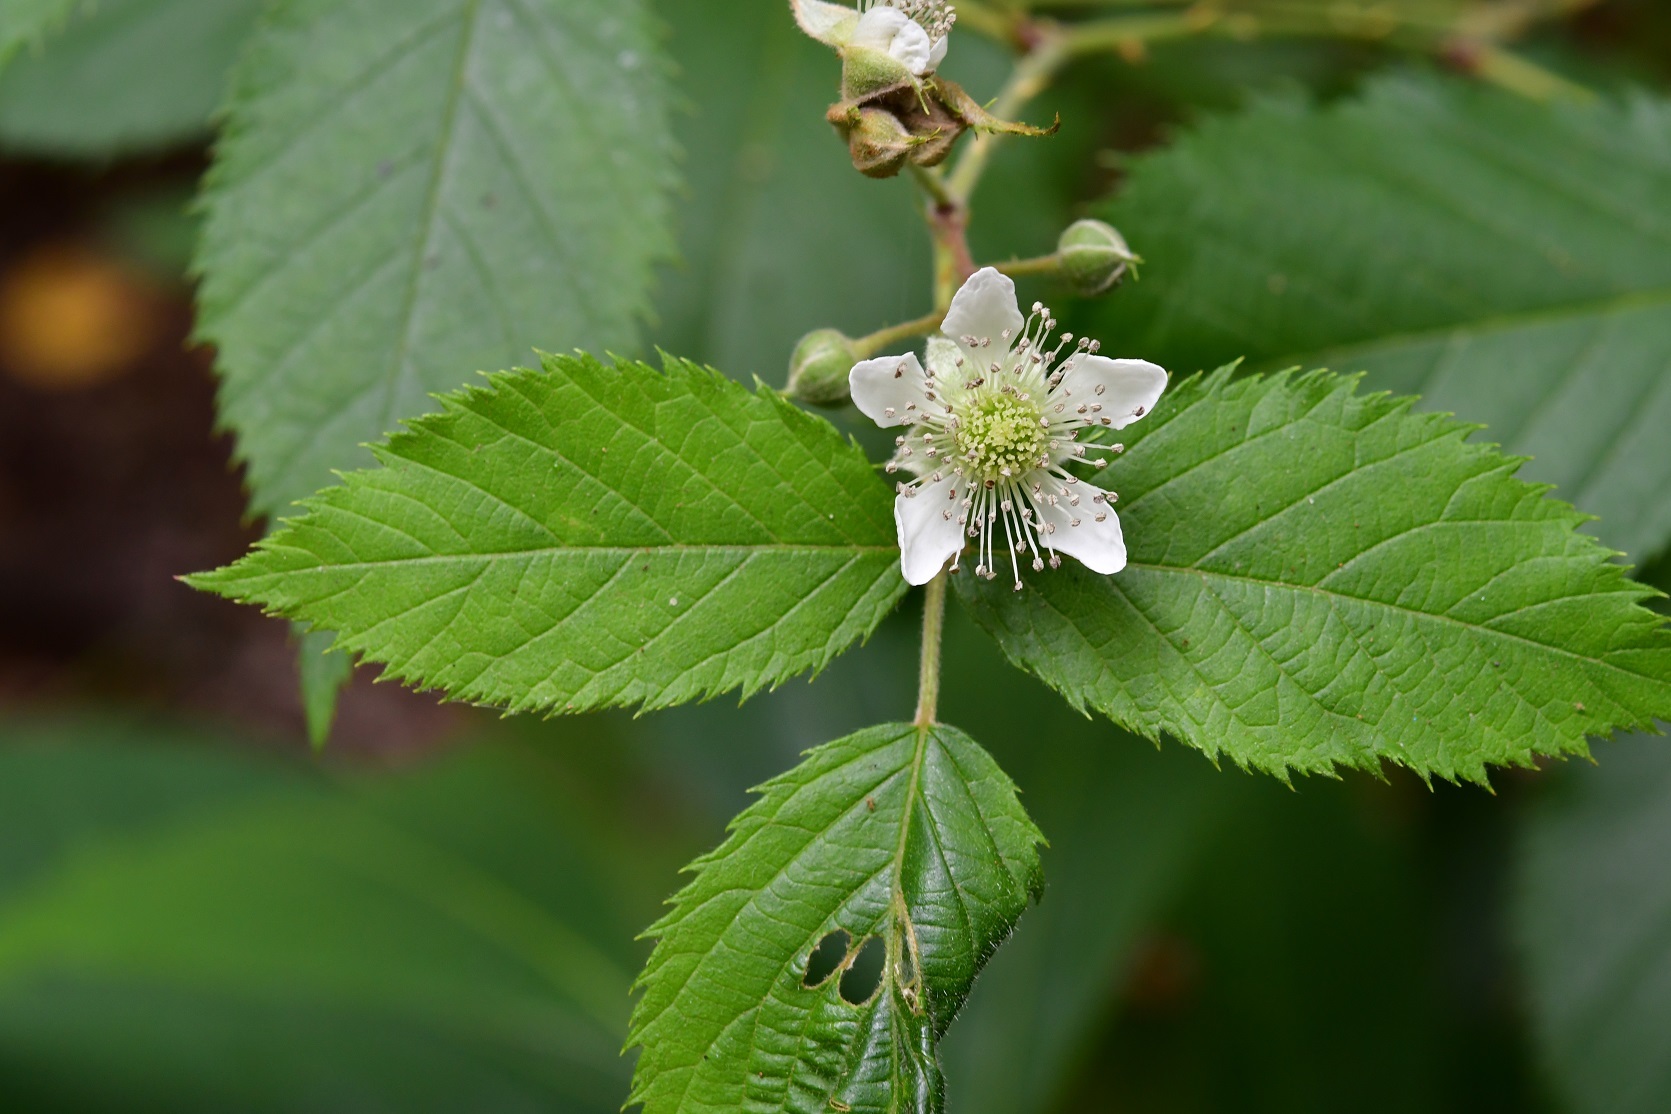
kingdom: Plantae
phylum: Tracheophyta
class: Magnoliopsida
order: Rosales
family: Rosaceae
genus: Rubus
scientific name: Rubus pringlei
